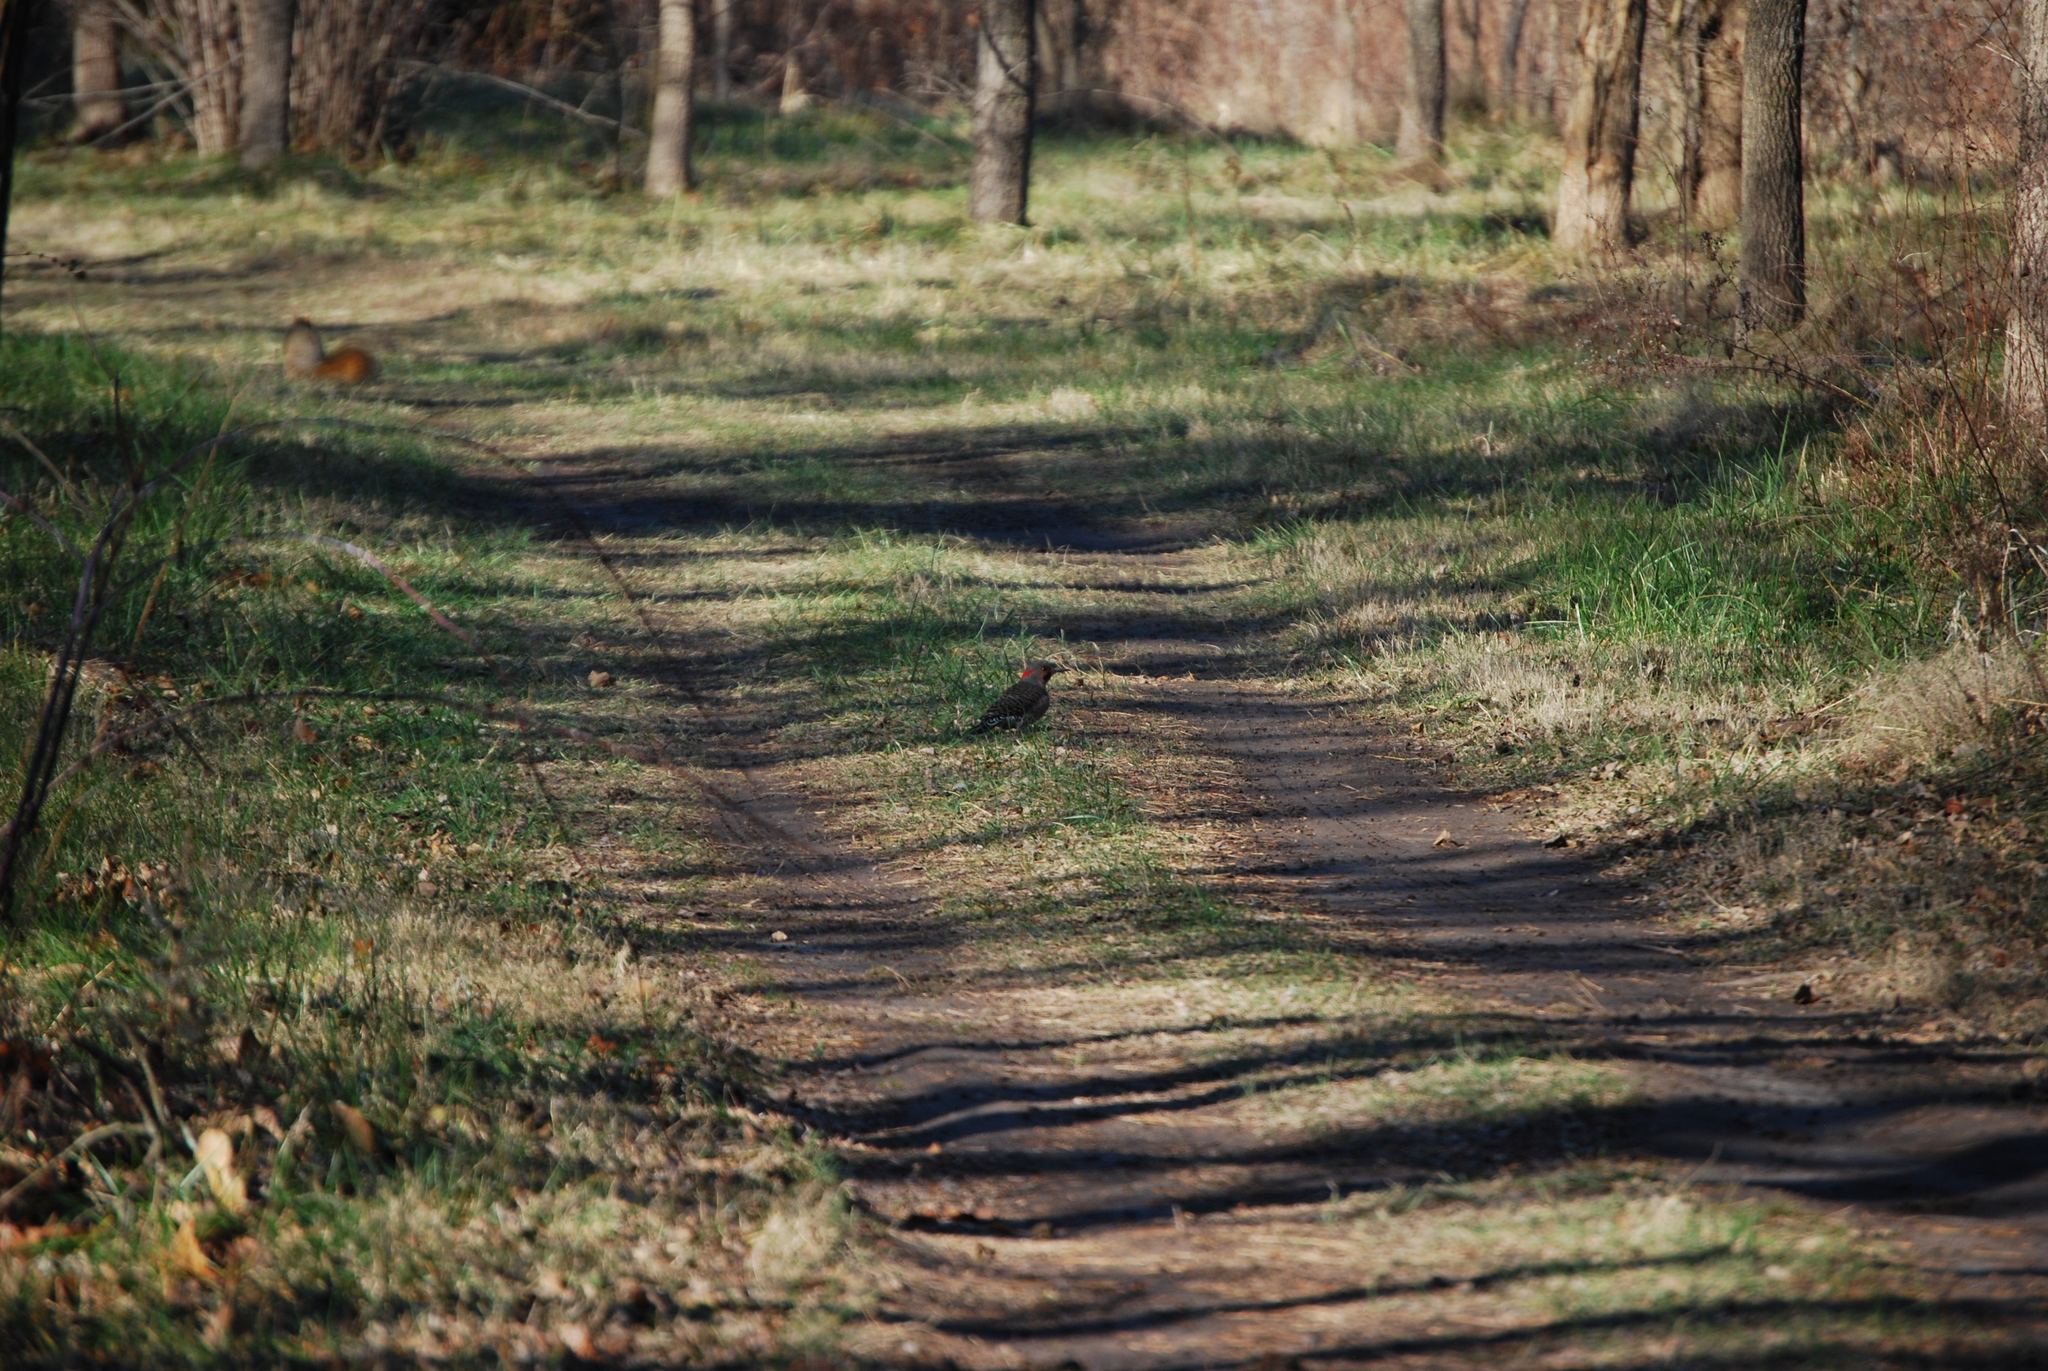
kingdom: Animalia
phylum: Chordata
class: Aves
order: Piciformes
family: Picidae
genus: Colaptes
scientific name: Colaptes auratus
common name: Northern flicker
